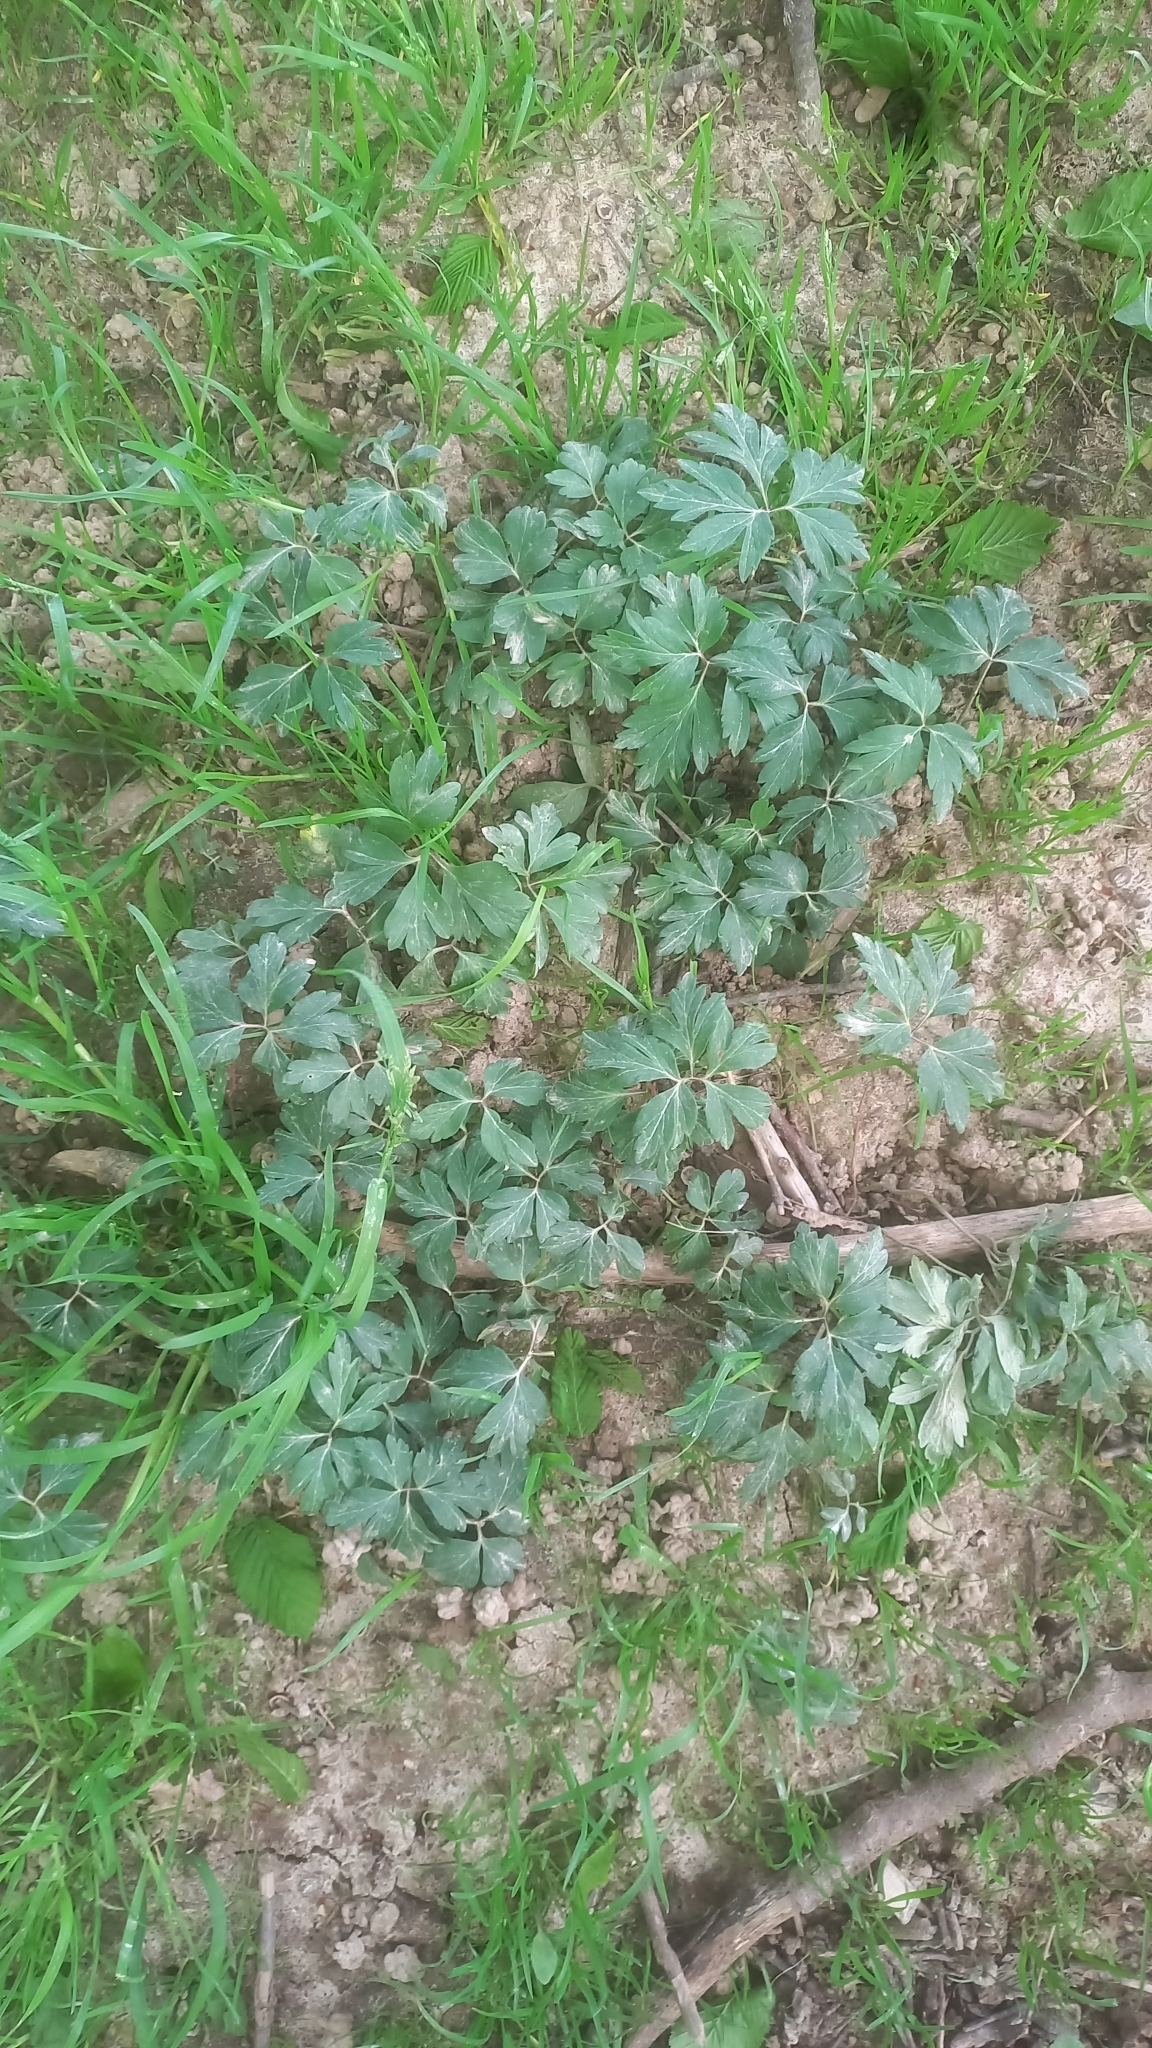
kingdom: Plantae
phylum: Tracheophyta
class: Magnoliopsida
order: Ranunculales
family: Ranunculaceae
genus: Anemone
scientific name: Anemone nemorosa
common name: Wood anemone
